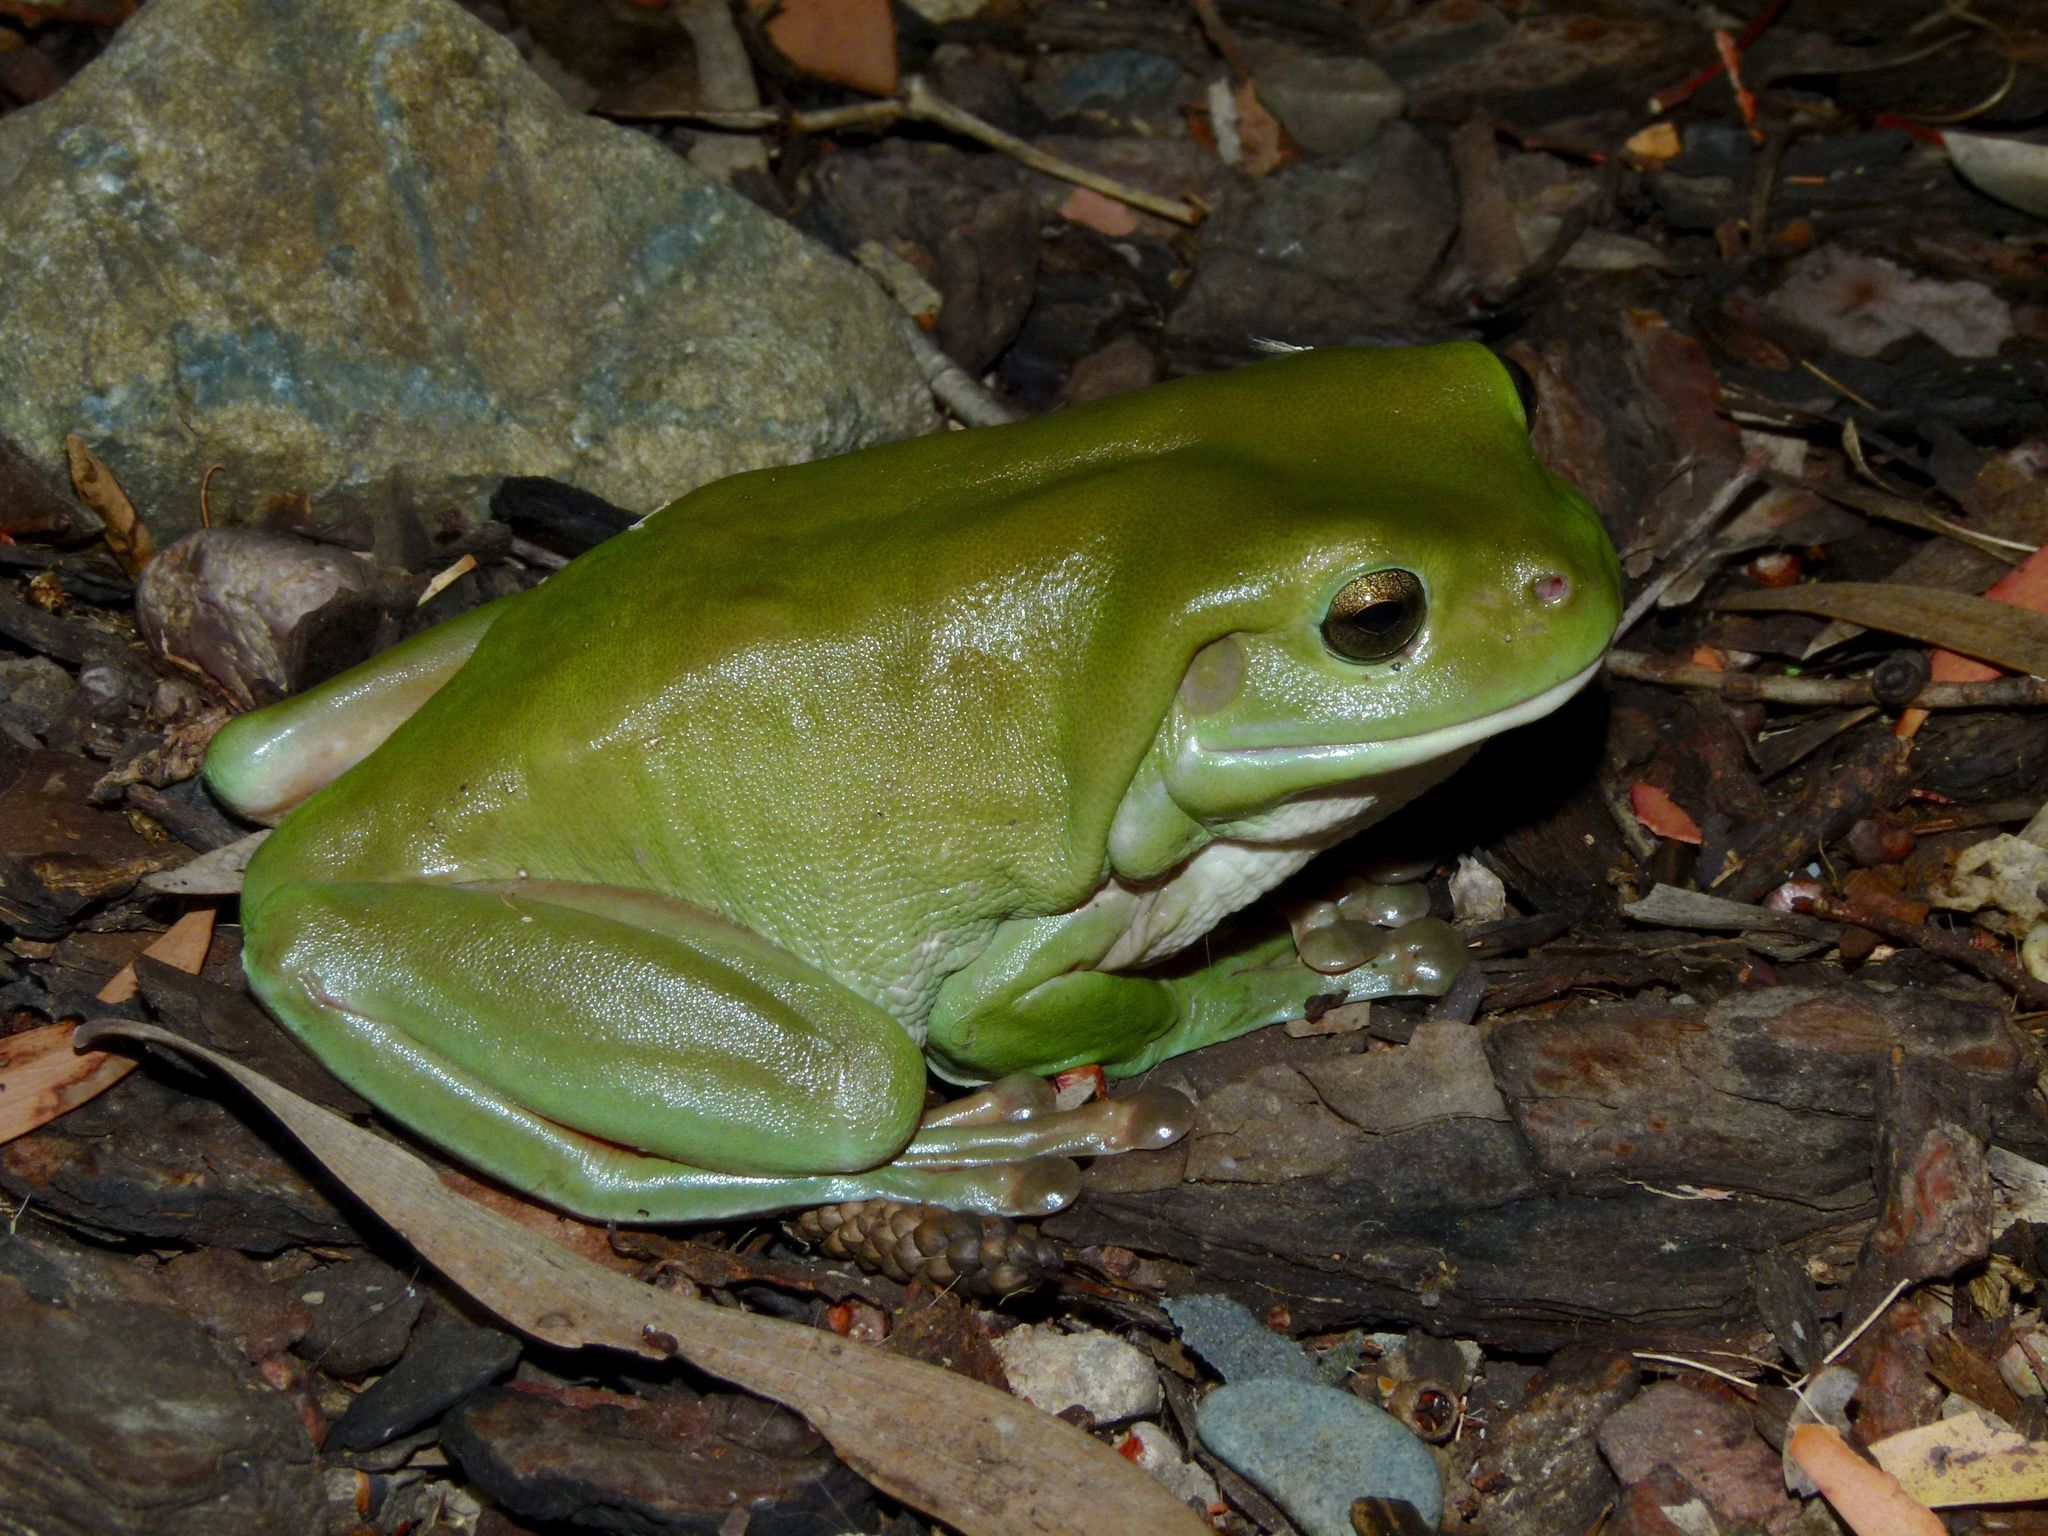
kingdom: Animalia
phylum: Chordata
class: Amphibia
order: Anura
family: Pelodryadidae
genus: Ranoidea
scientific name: Ranoidea caerulea
